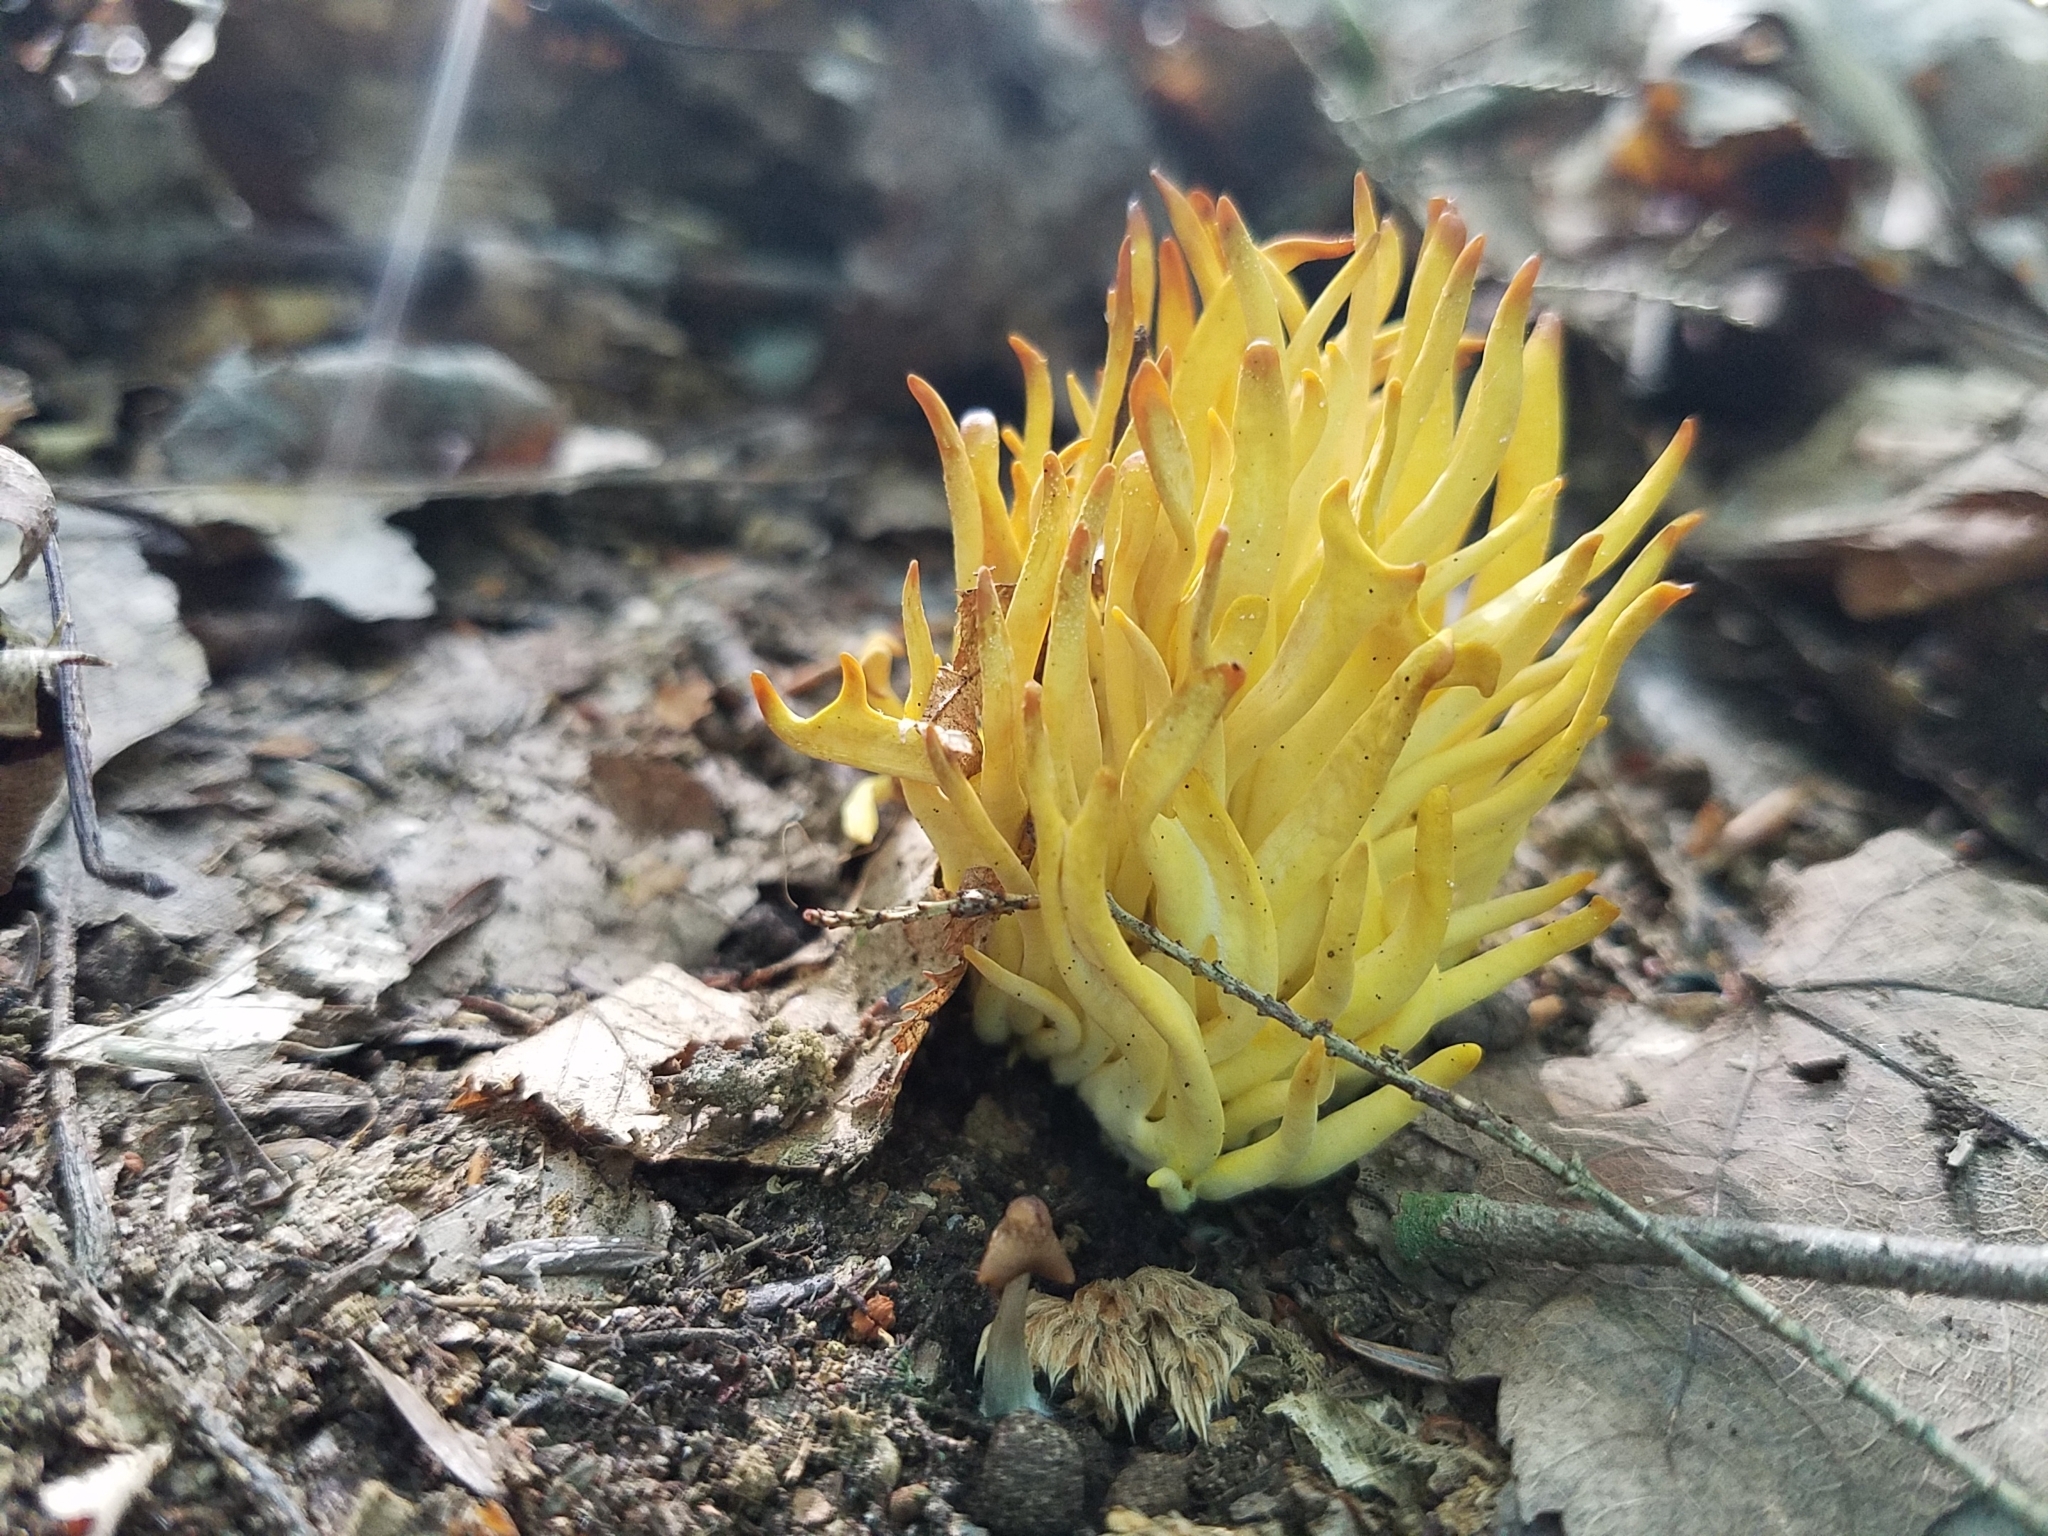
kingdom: Fungi
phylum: Basidiomycota
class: Agaricomycetes
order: Agaricales
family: Clavariaceae
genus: Clavulinopsis
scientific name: Clavulinopsis fusiformis
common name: Golden spindles
